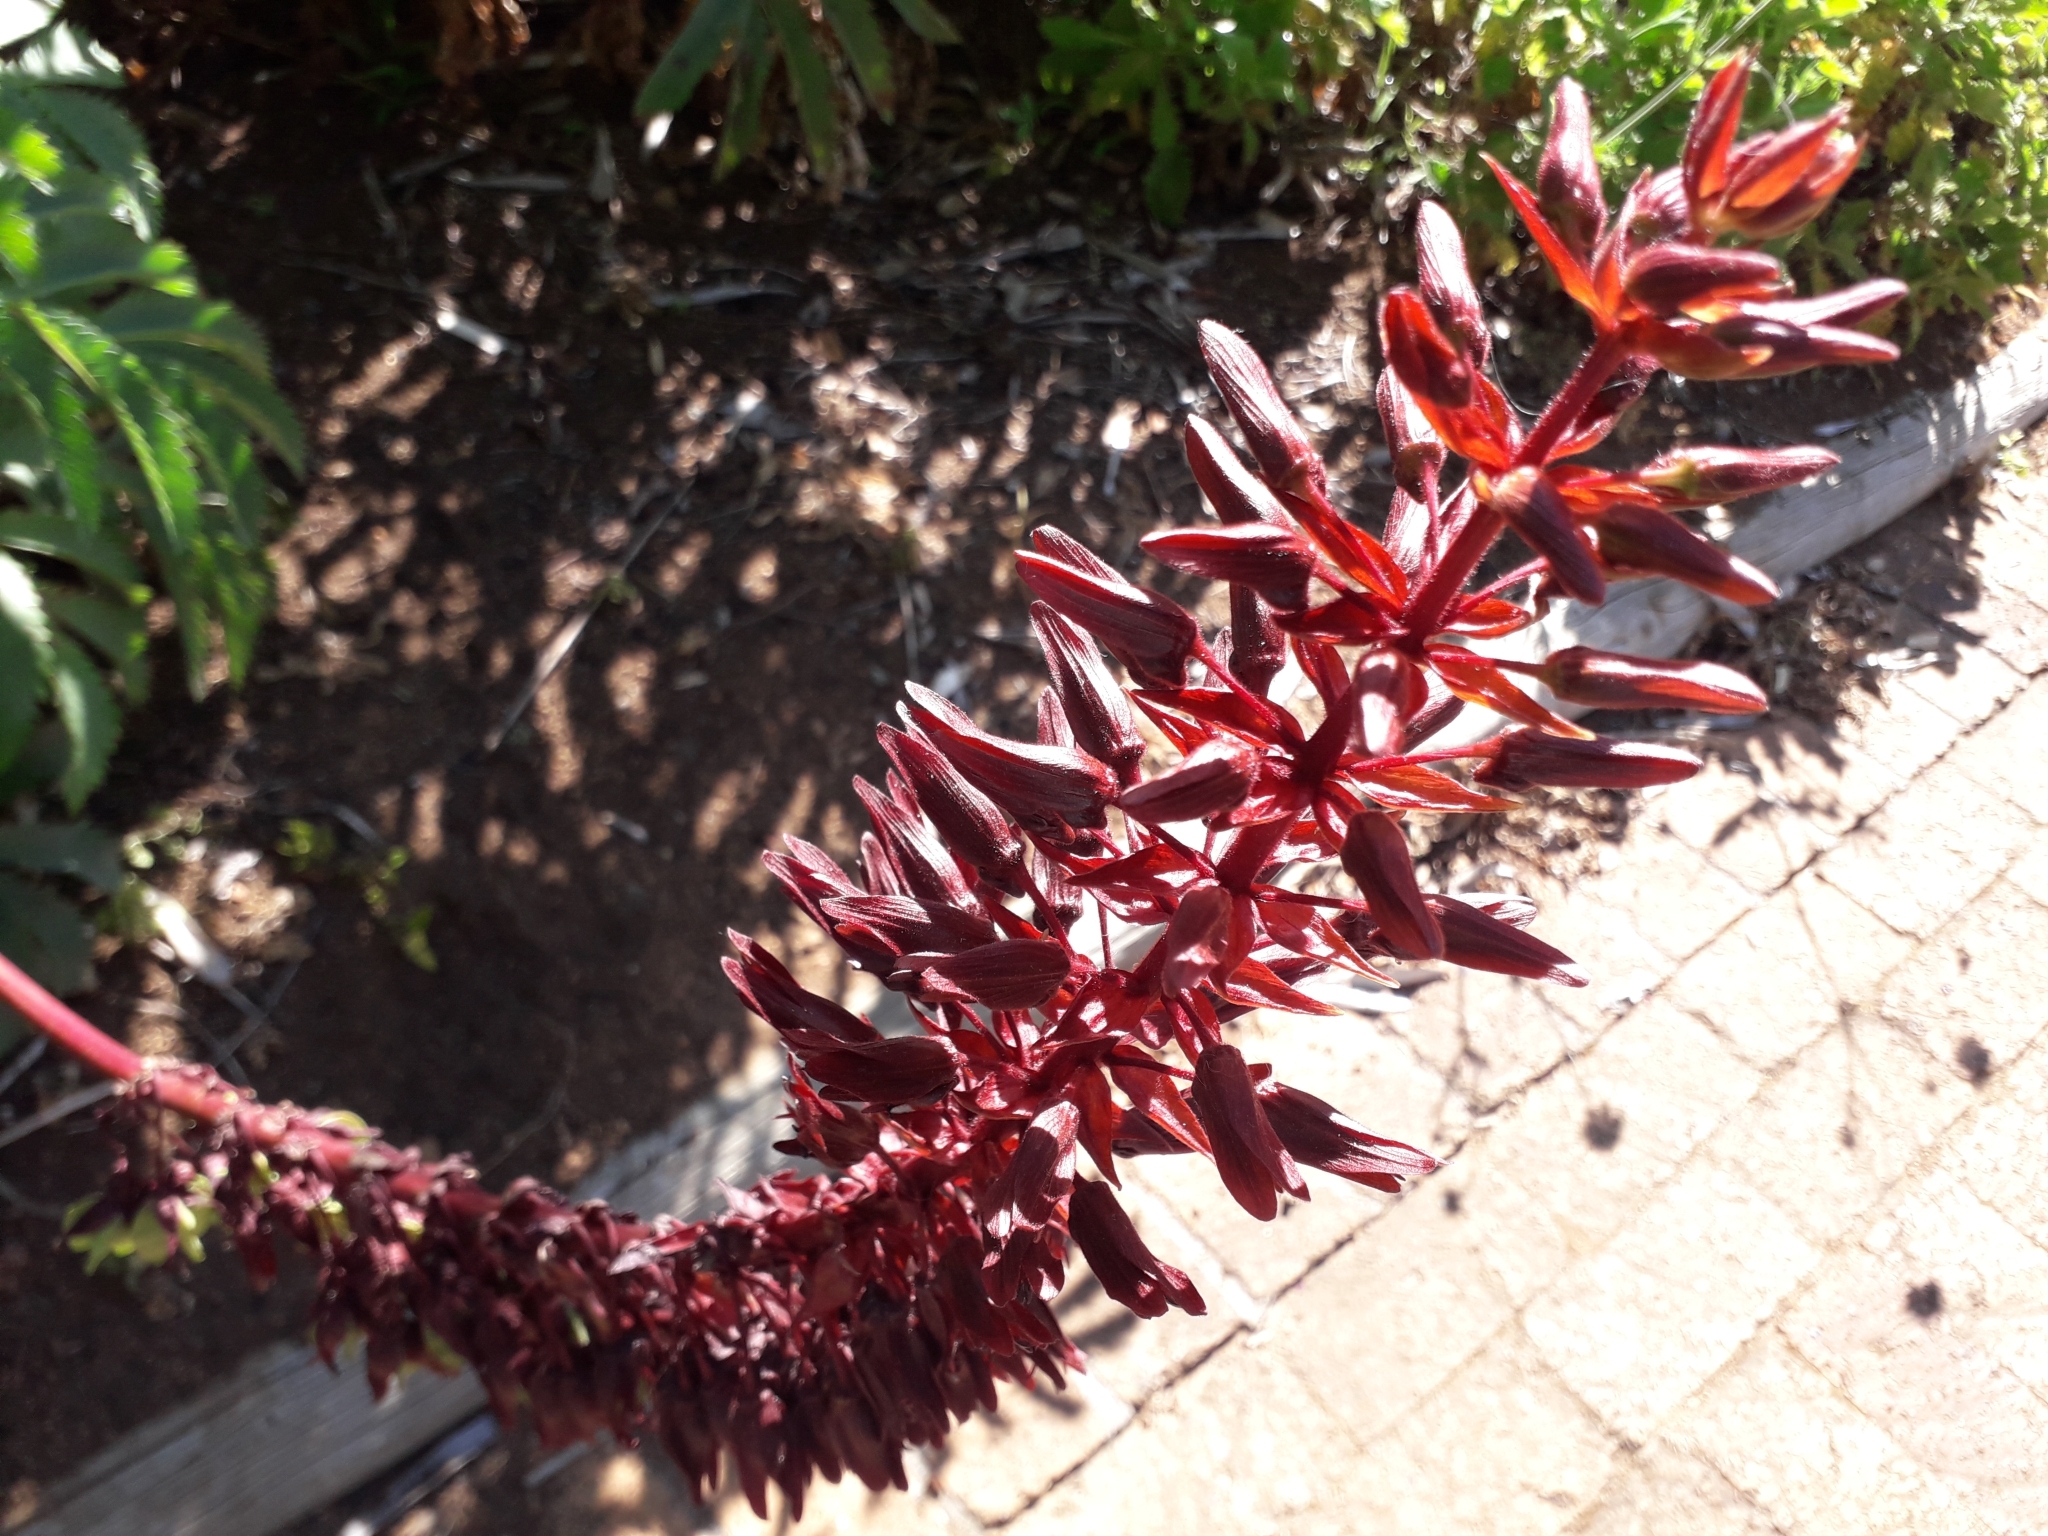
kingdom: Plantae
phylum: Tracheophyta
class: Magnoliopsida
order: Geraniales
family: Melianthaceae
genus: Melianthus
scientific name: Melianthus major
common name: Honey-flower
